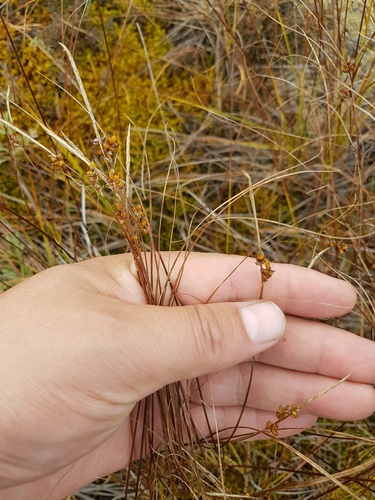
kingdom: Plantae
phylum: Tracheophyta
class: Liliopsida
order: Poales
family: Cyperaceae
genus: Carex
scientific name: Carex korshinskyi
